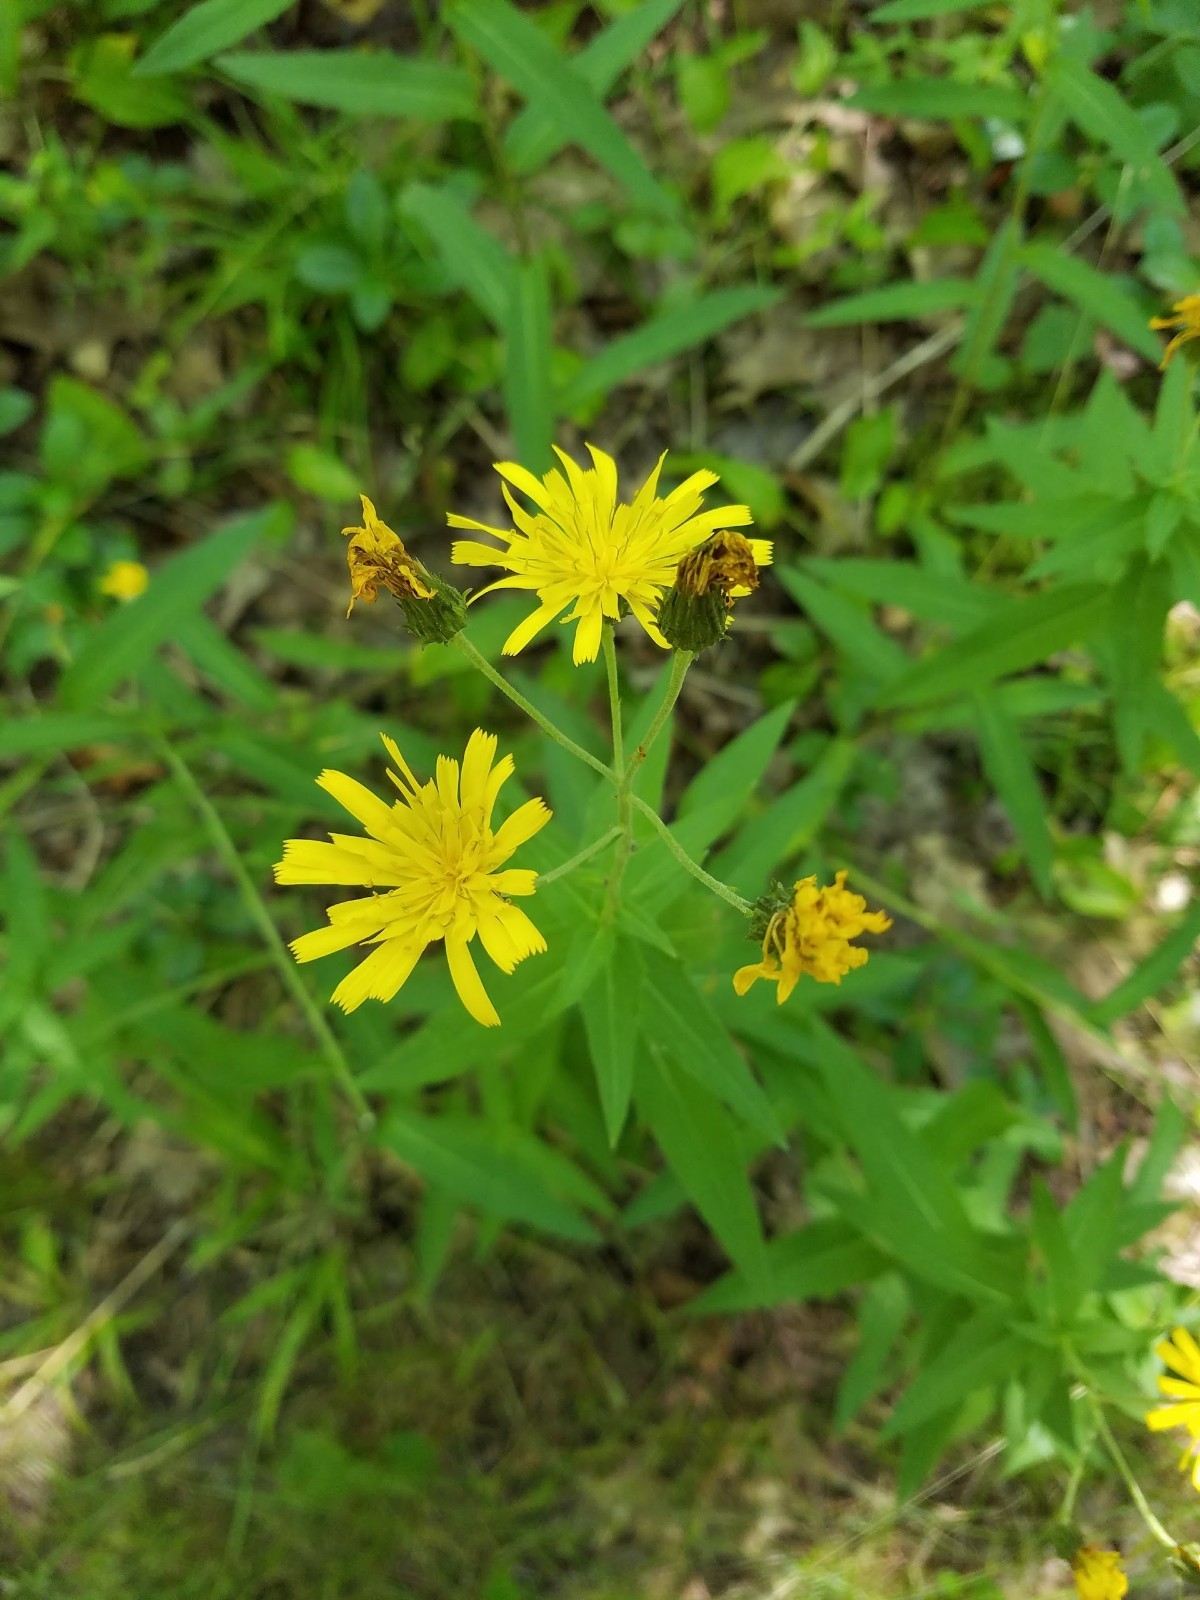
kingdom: Plantae
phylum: Tracheophyta
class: Magnoliopsida
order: Asterales
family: Asteraceae
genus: Hieracium
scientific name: Hieracium umbellatum
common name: Northern hawkweed
